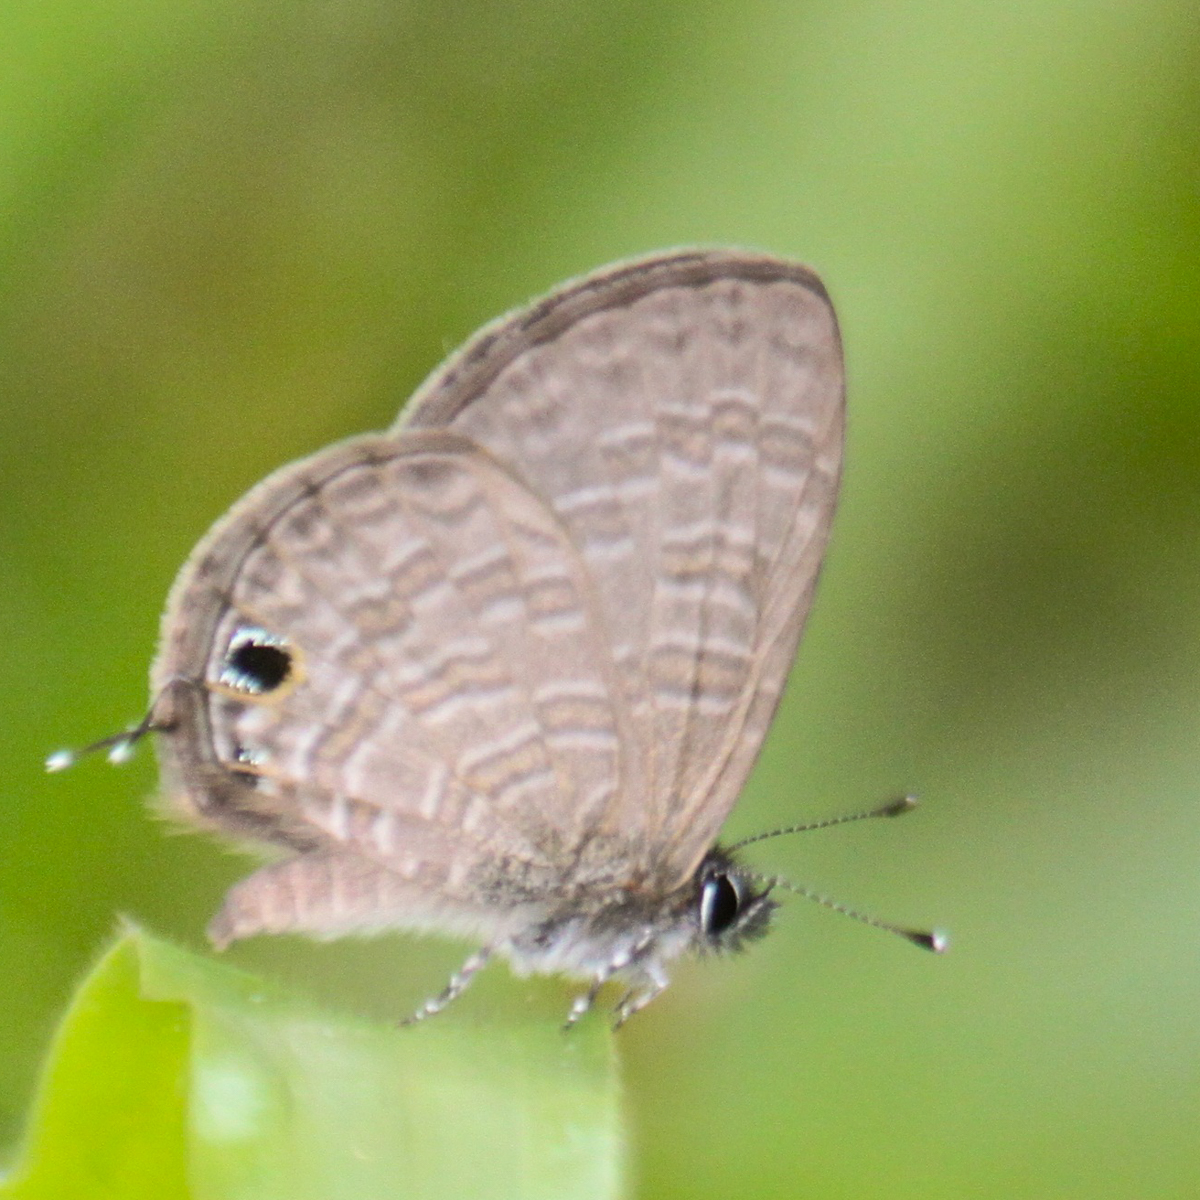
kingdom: Animalia
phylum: Arthropoda
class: Insecta
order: Lepidoptera
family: Lycaenidae
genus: Prosotas
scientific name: Prosotas nora
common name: Common line blue
